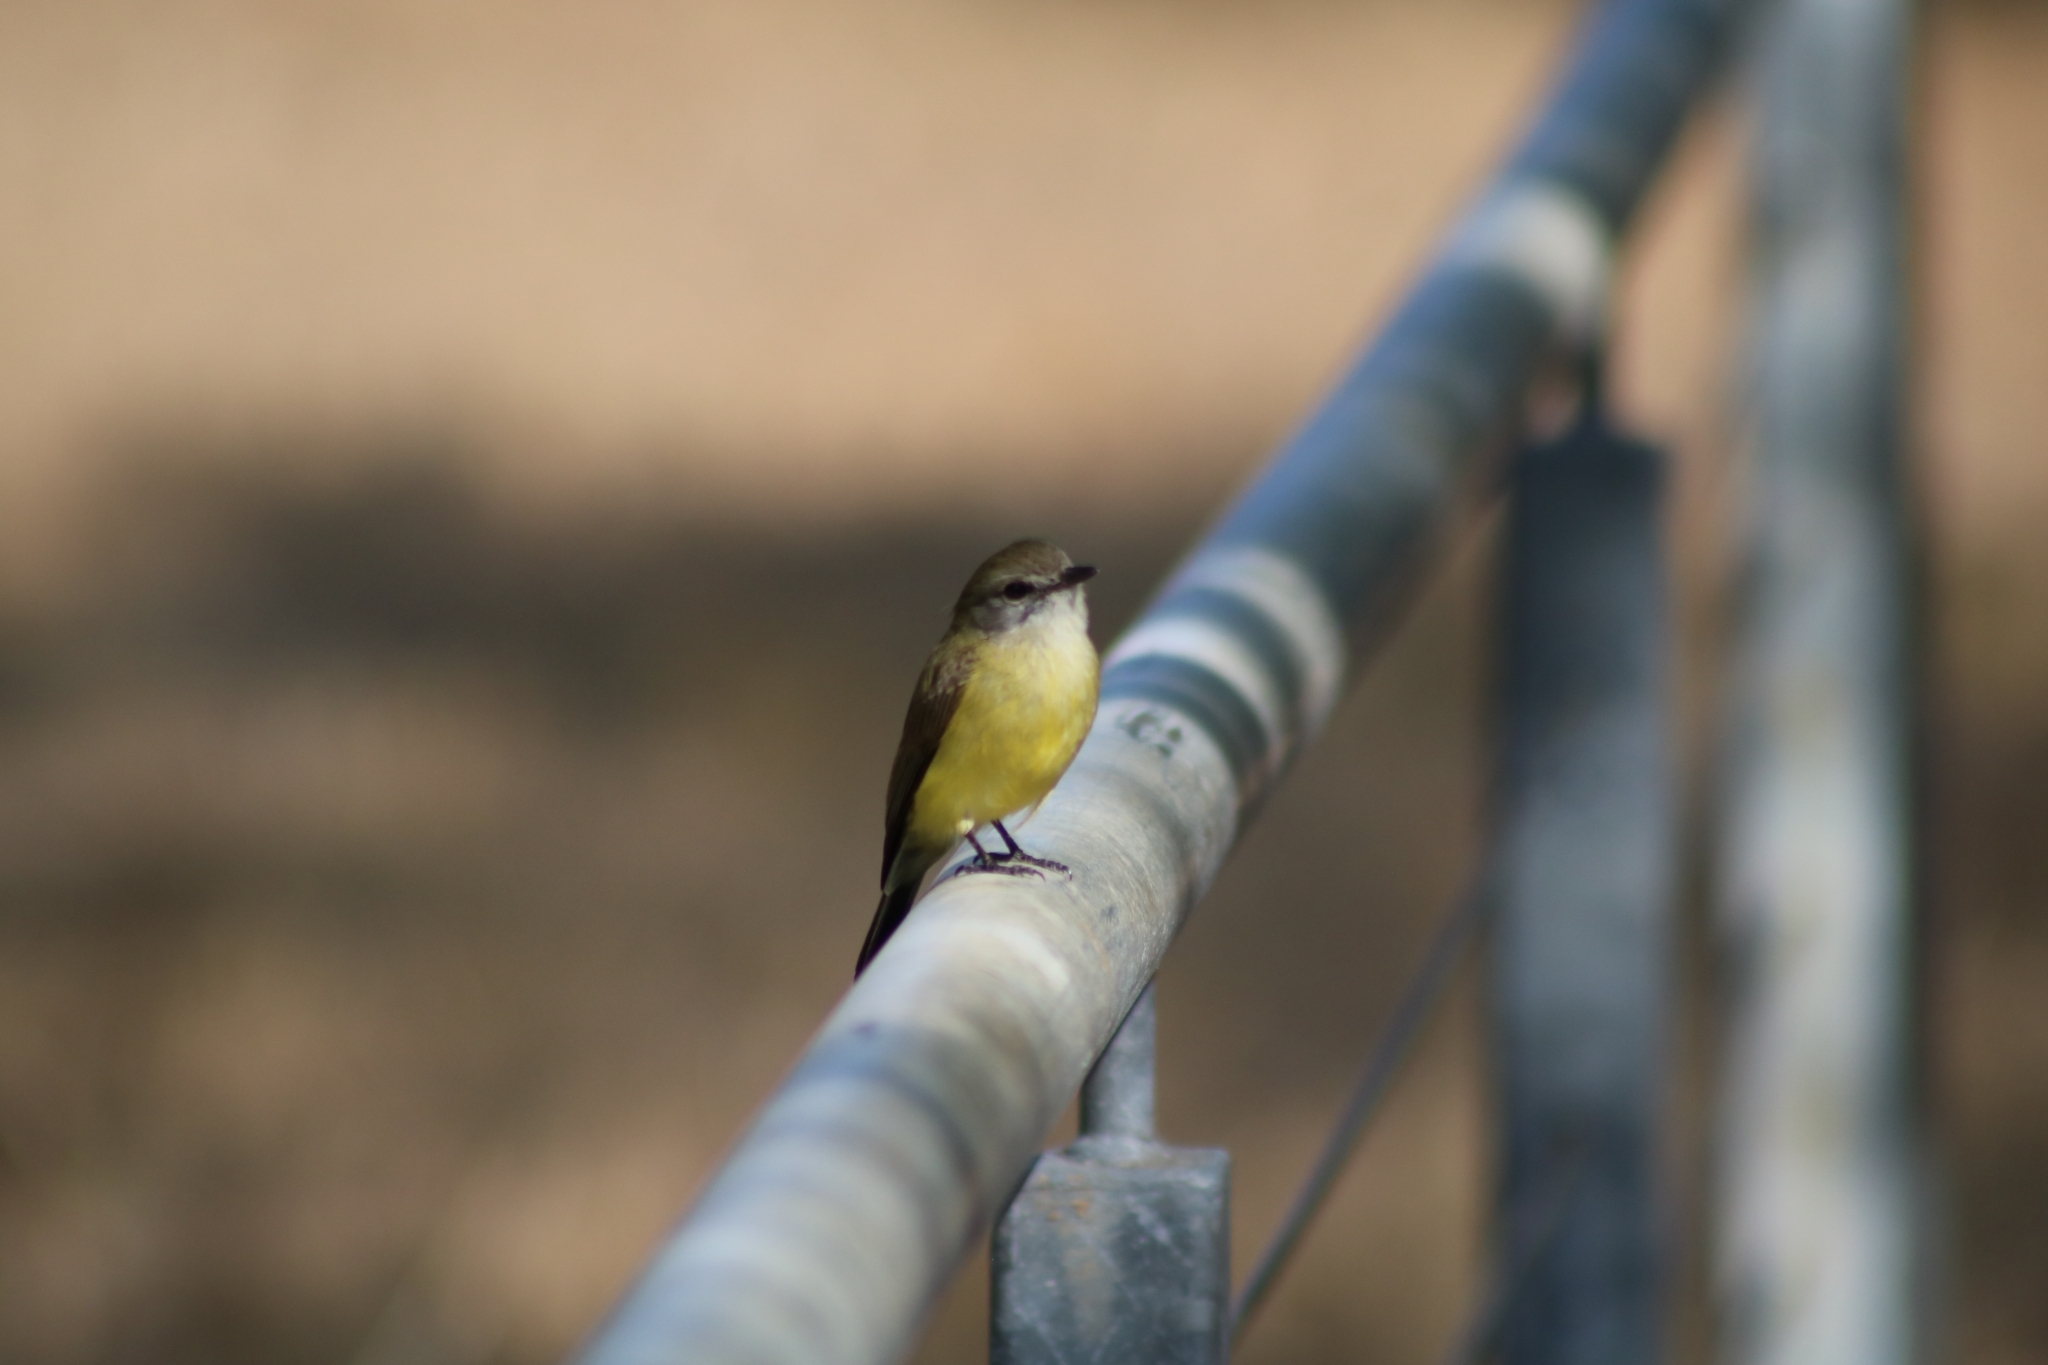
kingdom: Animalia
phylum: Chordata
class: Aves
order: Passeriformes
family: Petroicidae
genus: Microeca
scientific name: Microeca flavigaster
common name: Lemon-bellied flyrobin
